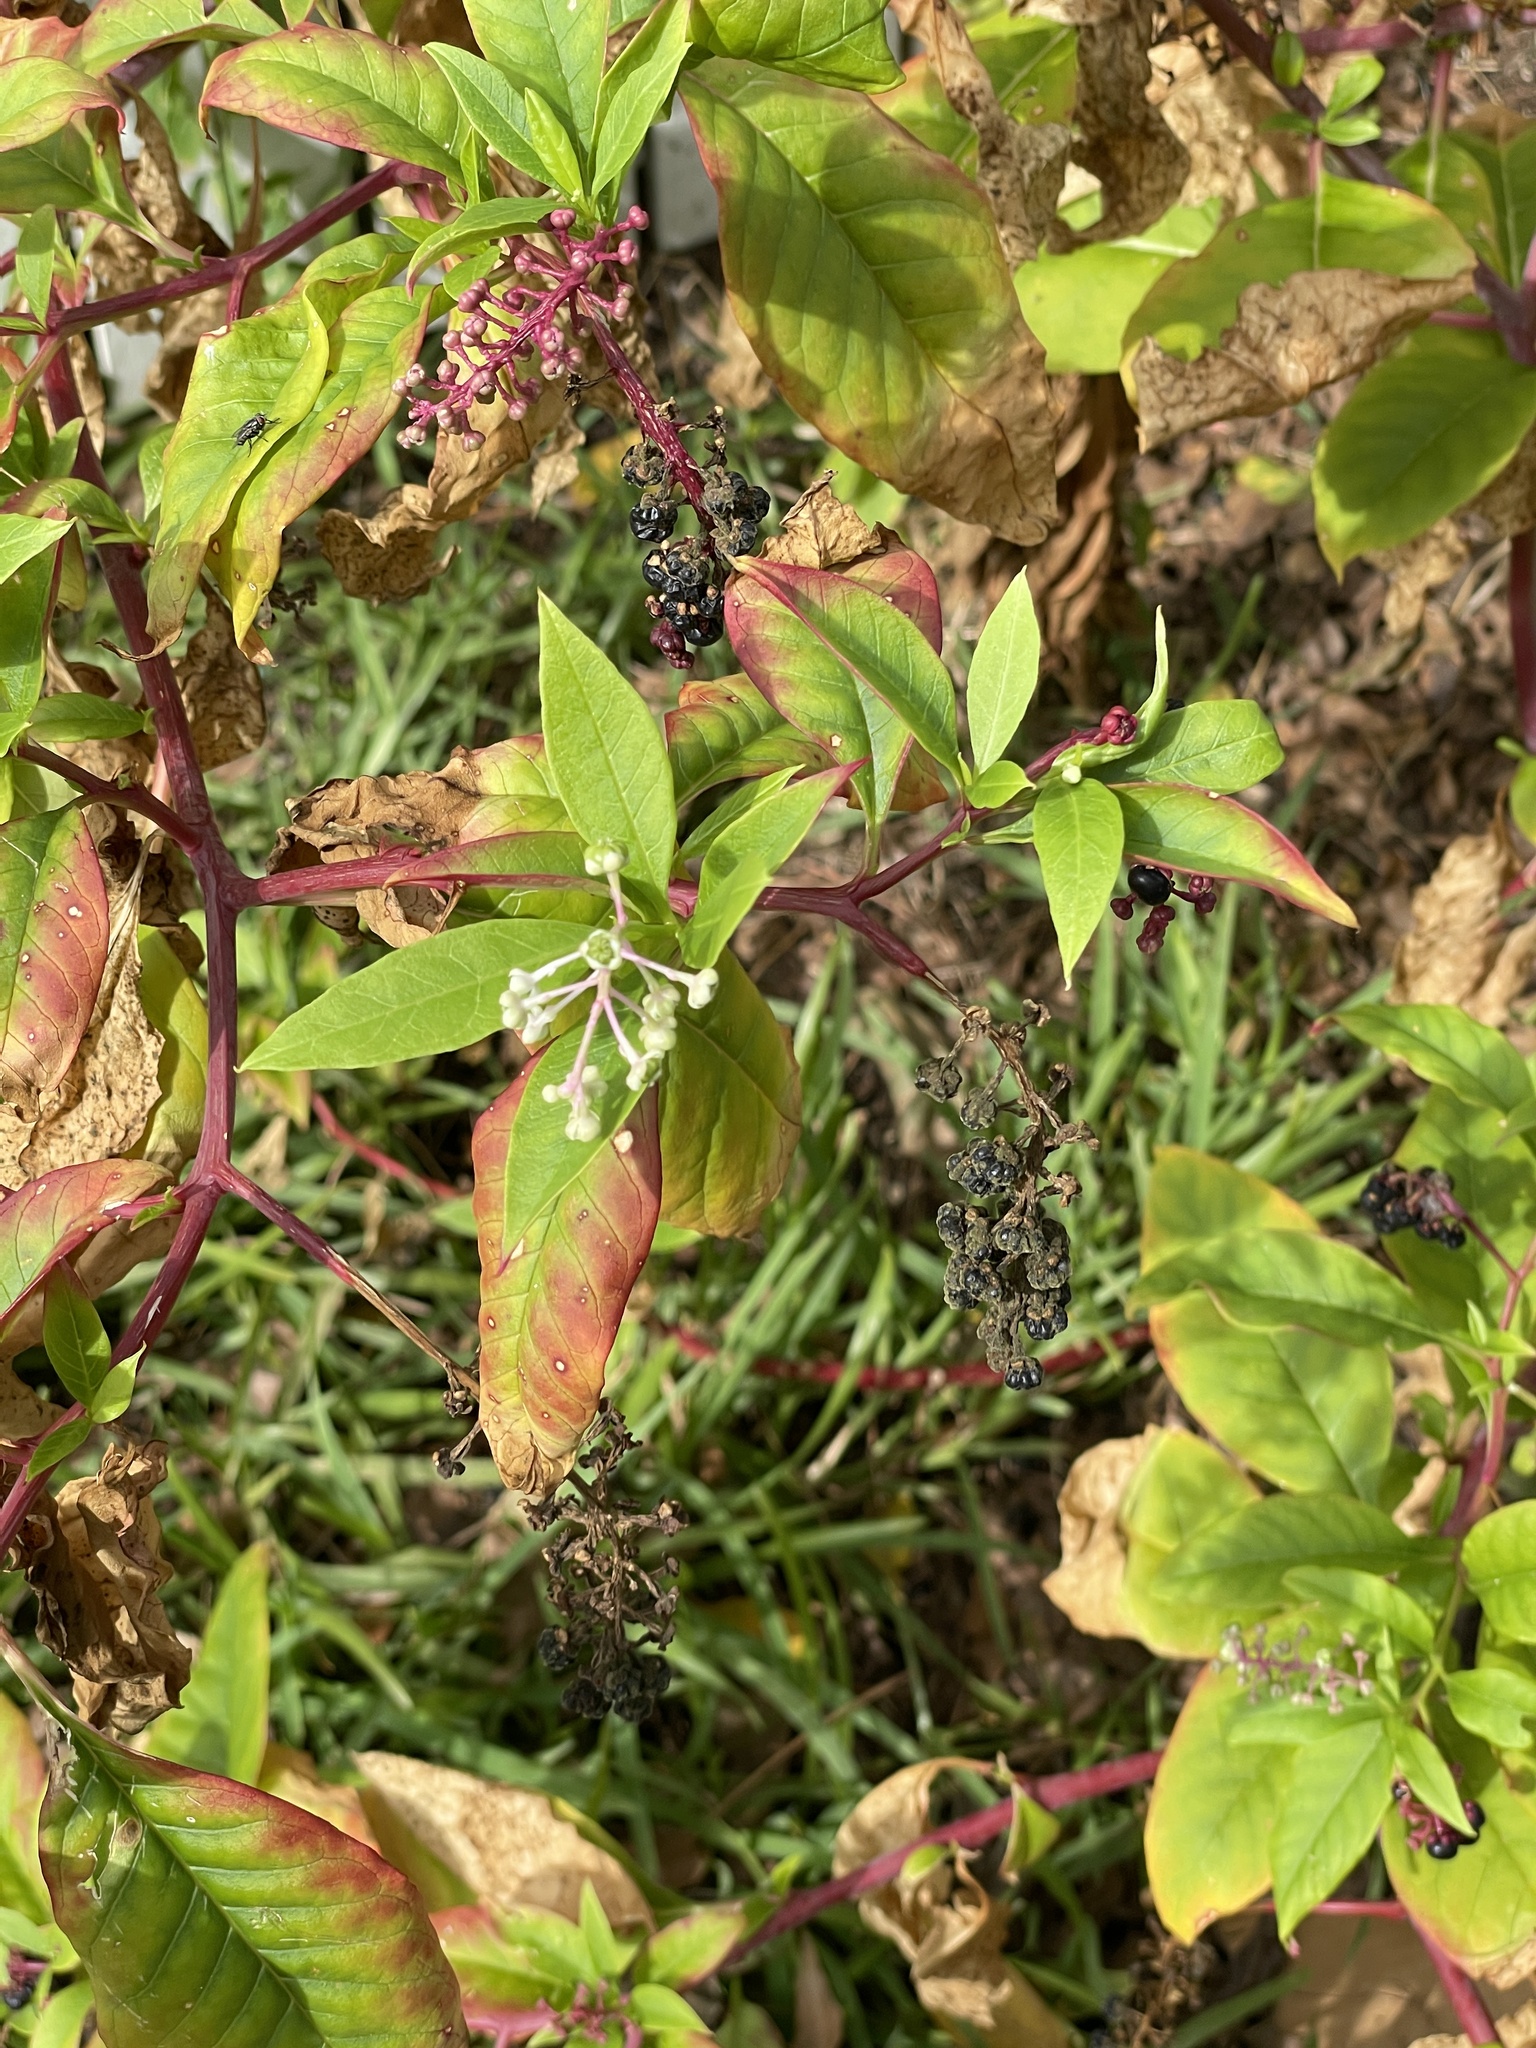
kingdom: Plantae
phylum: Tracheophyta
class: Magnoliopsida
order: Caryophyllales
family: Phytolaccaceae
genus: Phytolacca
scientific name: Phytolacca americana
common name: American pokeweed
